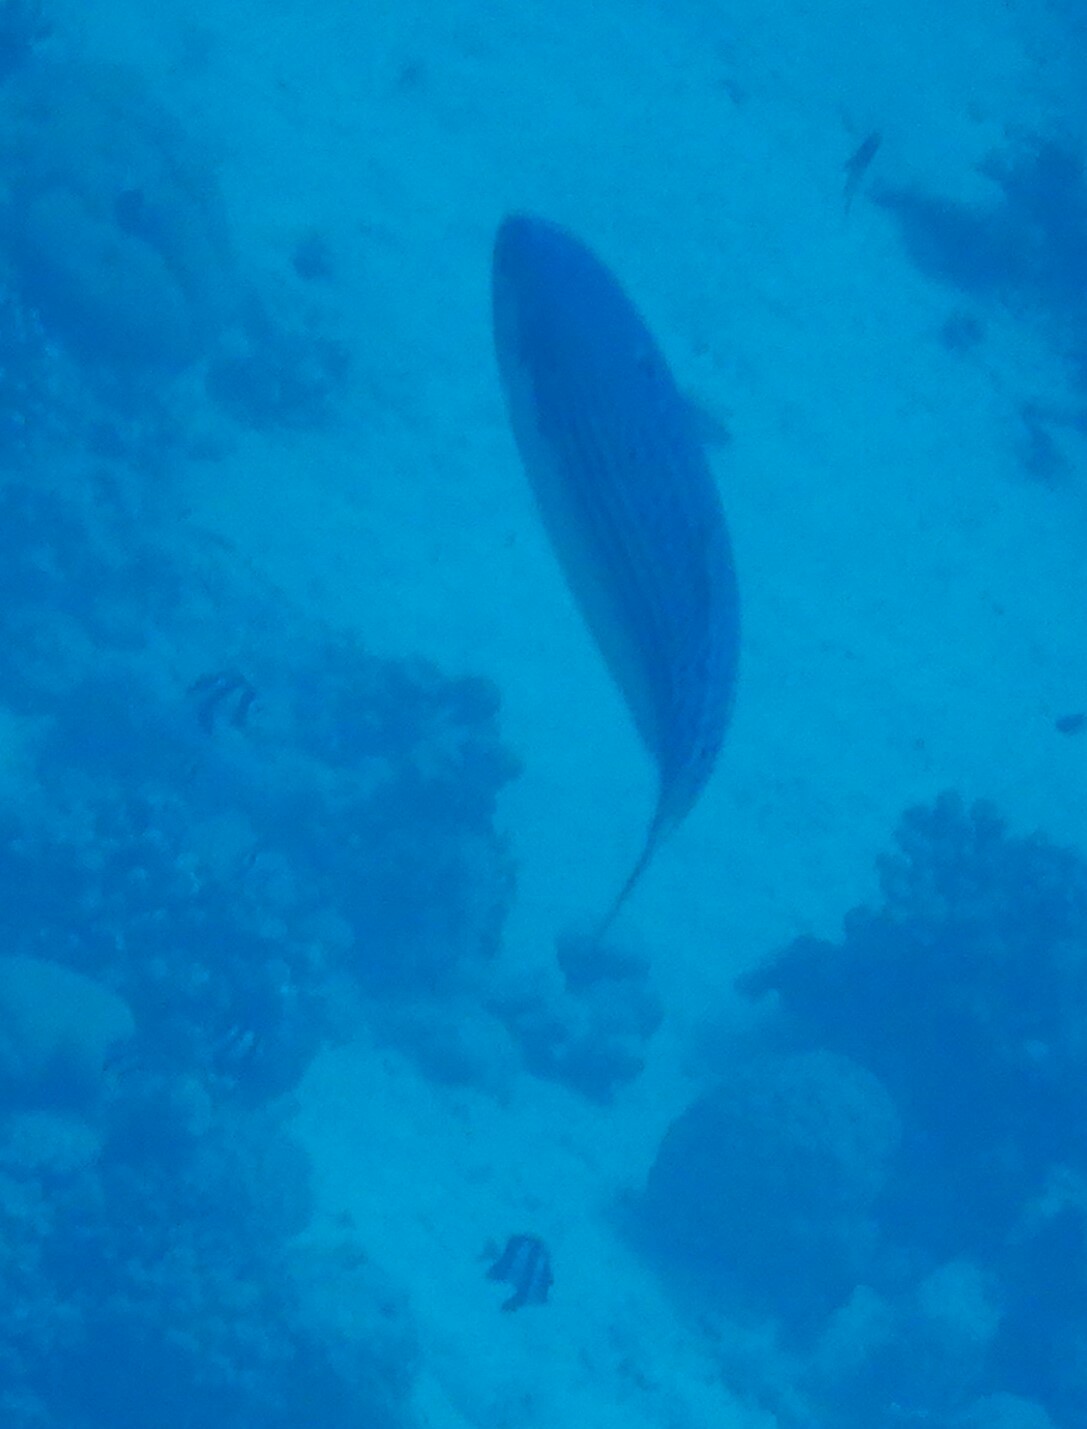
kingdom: Animalia
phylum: Chordata
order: Perciformes
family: Caesionidae
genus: Caesio
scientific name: Caesio striata
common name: Striated fusilier
